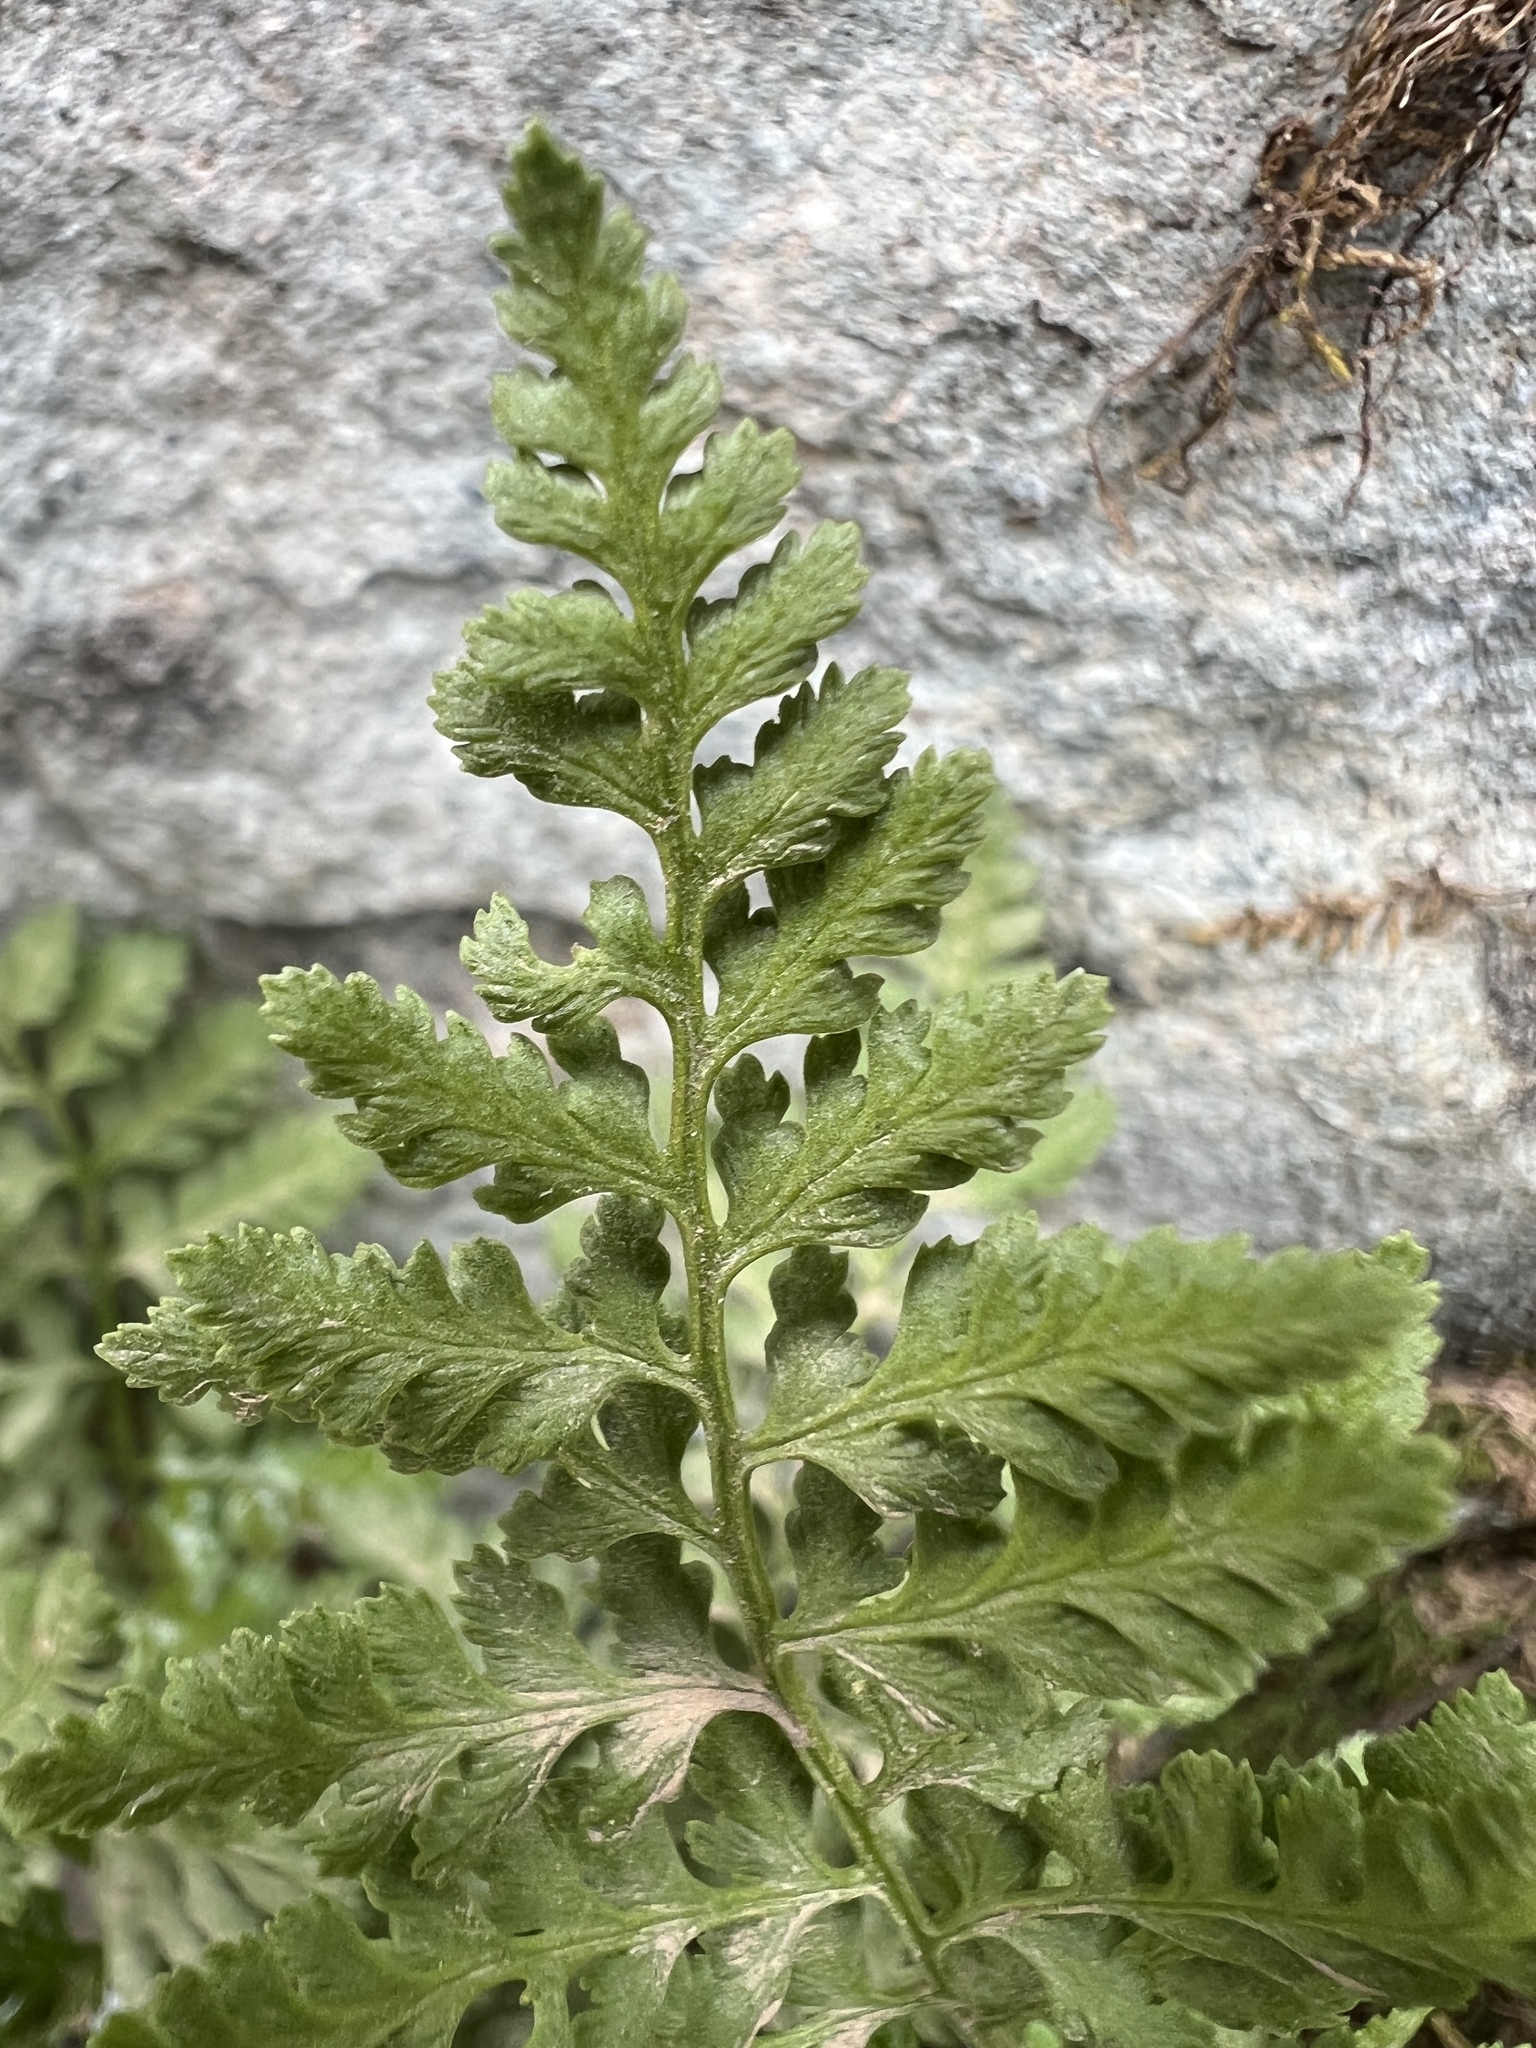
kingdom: Plantae
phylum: Tracheophyta
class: Polypodiopsida
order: Polypodiales
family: Cystopteridaceae
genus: Cystopteris
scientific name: Cystopteris fragilis
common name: Brittle bladder fern
